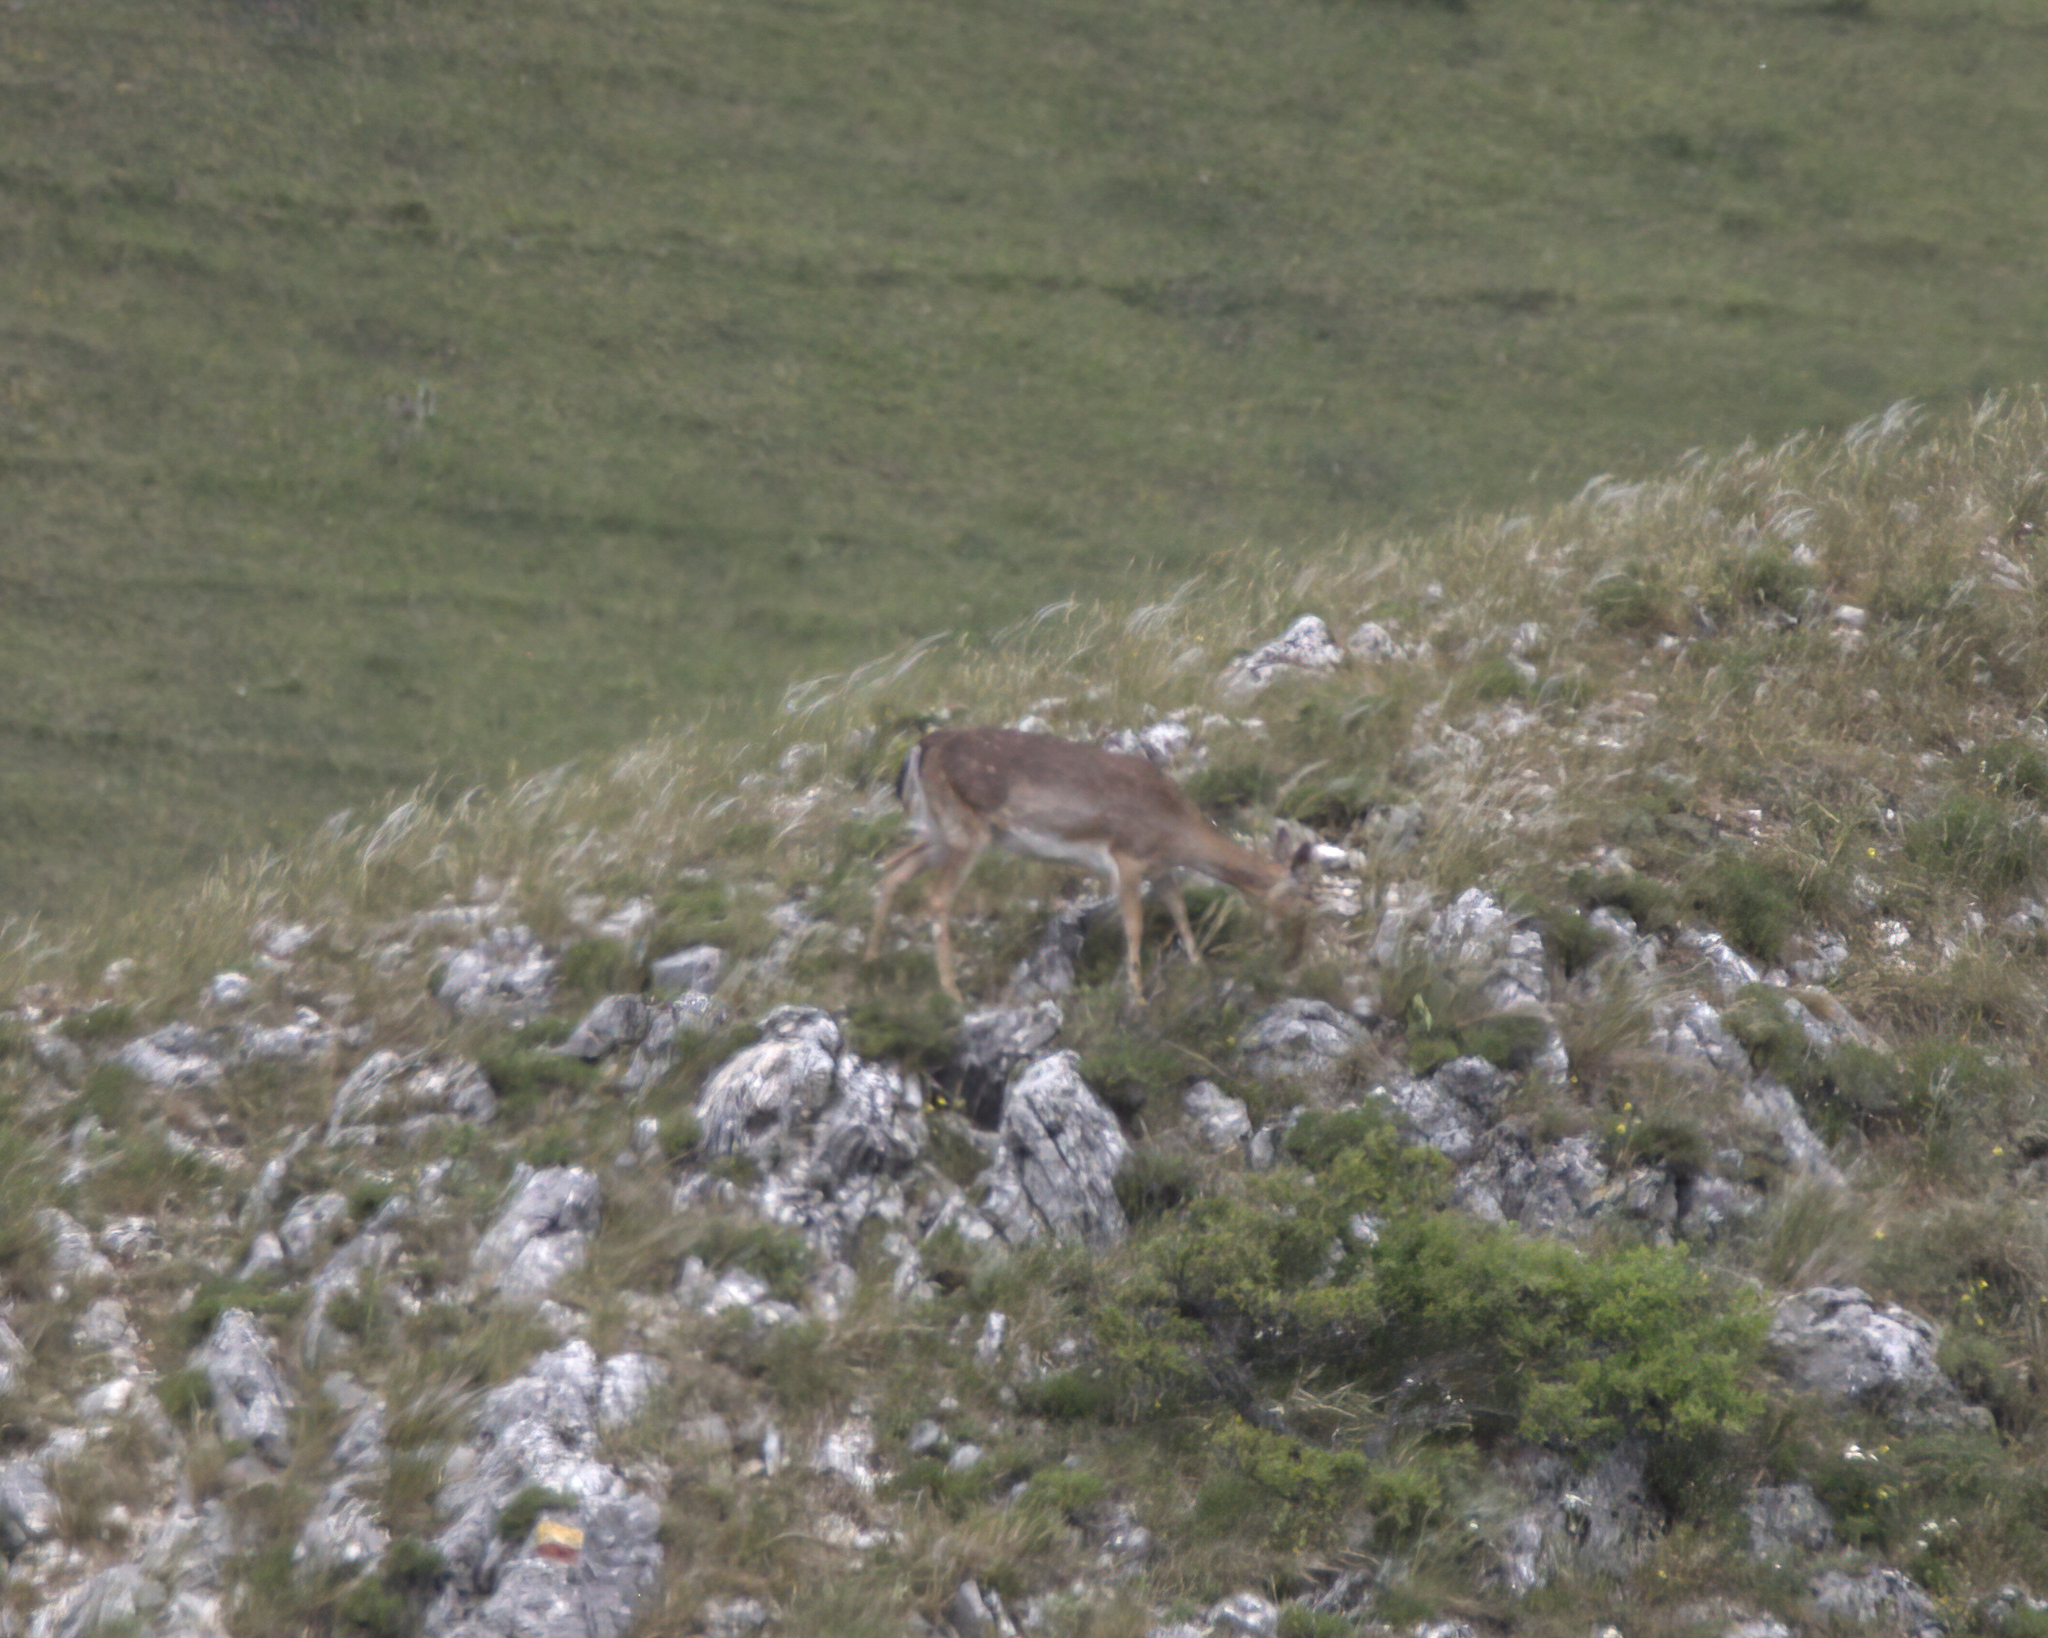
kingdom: Animalia
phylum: Chordata
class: Mammalia
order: Artiodactyla
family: Cervidae
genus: Dama
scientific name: Dama dama
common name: Fallow deer
